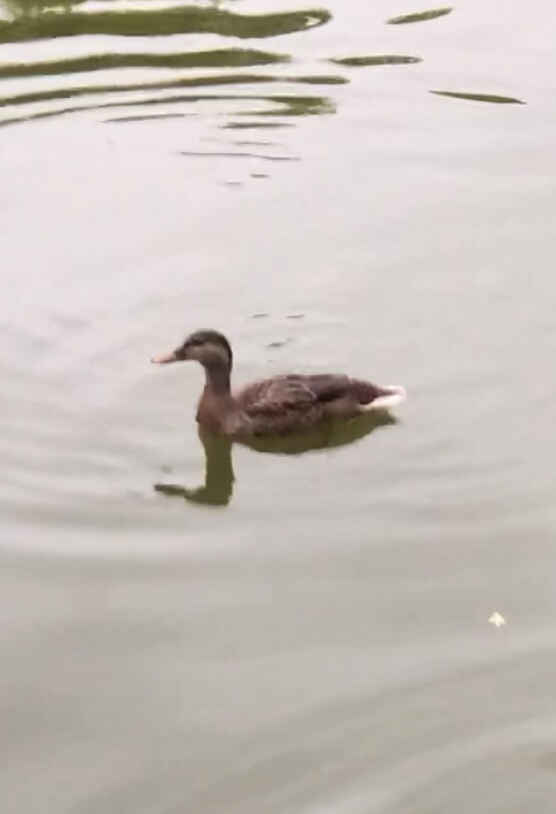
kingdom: Animalia
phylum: Chordata
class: Aves
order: Anseriformes
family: Anatidae
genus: Anas
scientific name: Anas platyrhynchos
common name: Mallard
